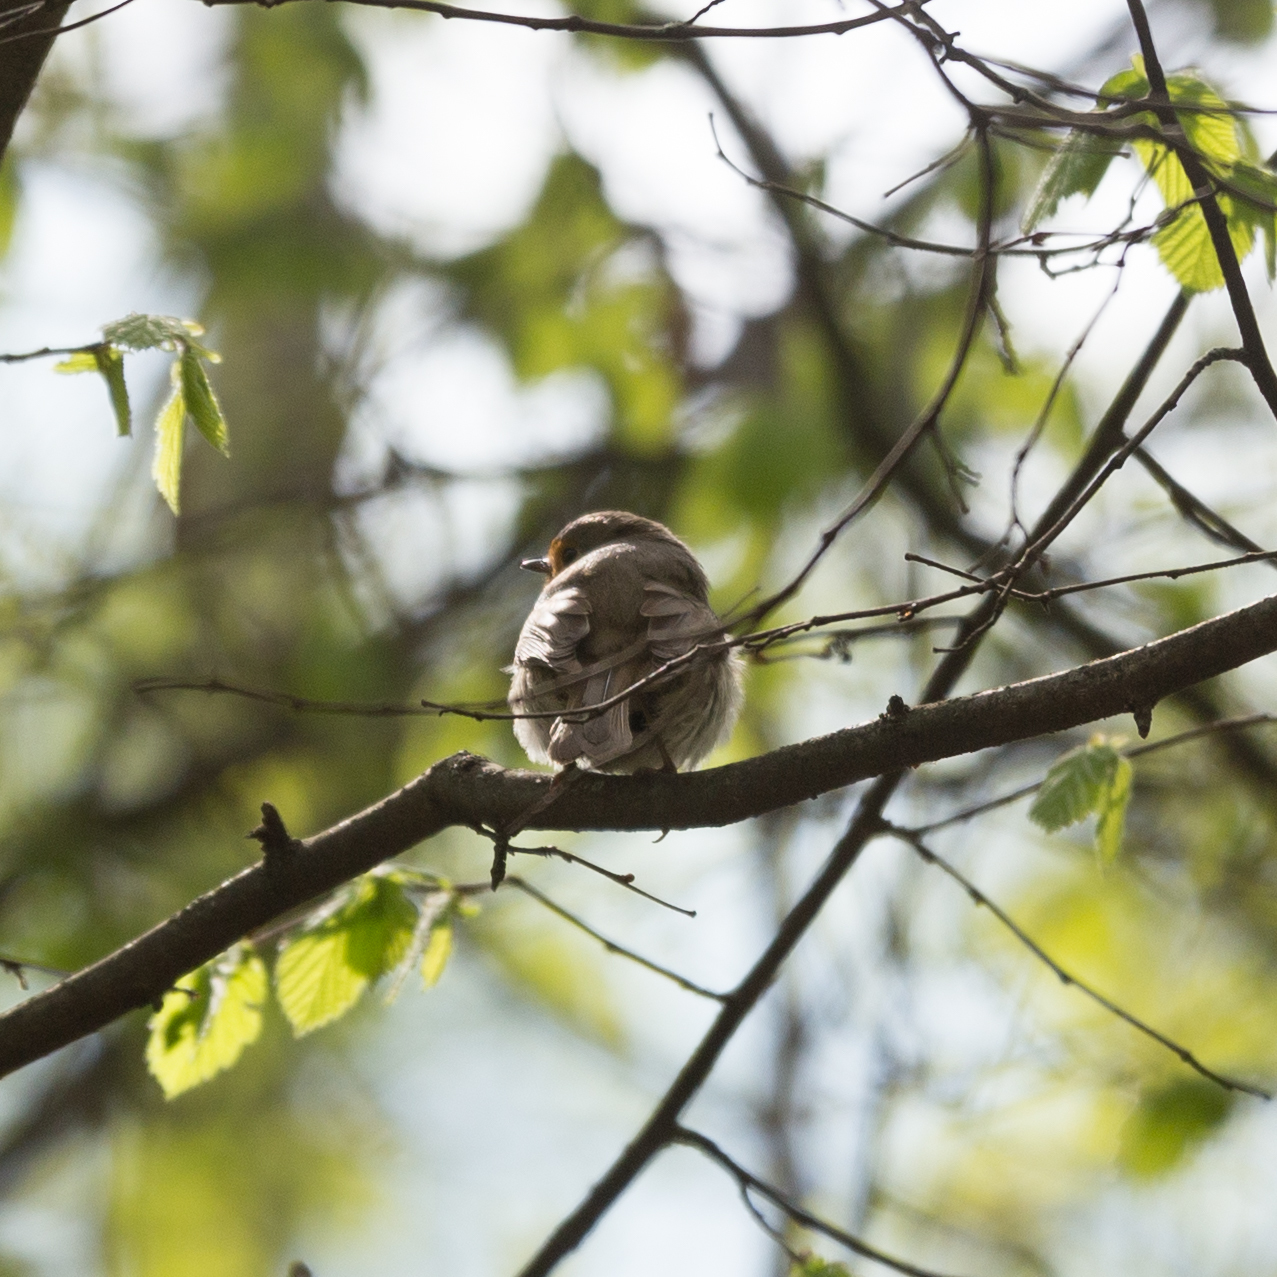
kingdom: Animalia
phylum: Chordata
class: Aves
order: Passeriformes
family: Muscicapidae
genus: Erithacus
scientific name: Erithacus rubecula
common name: European robin
